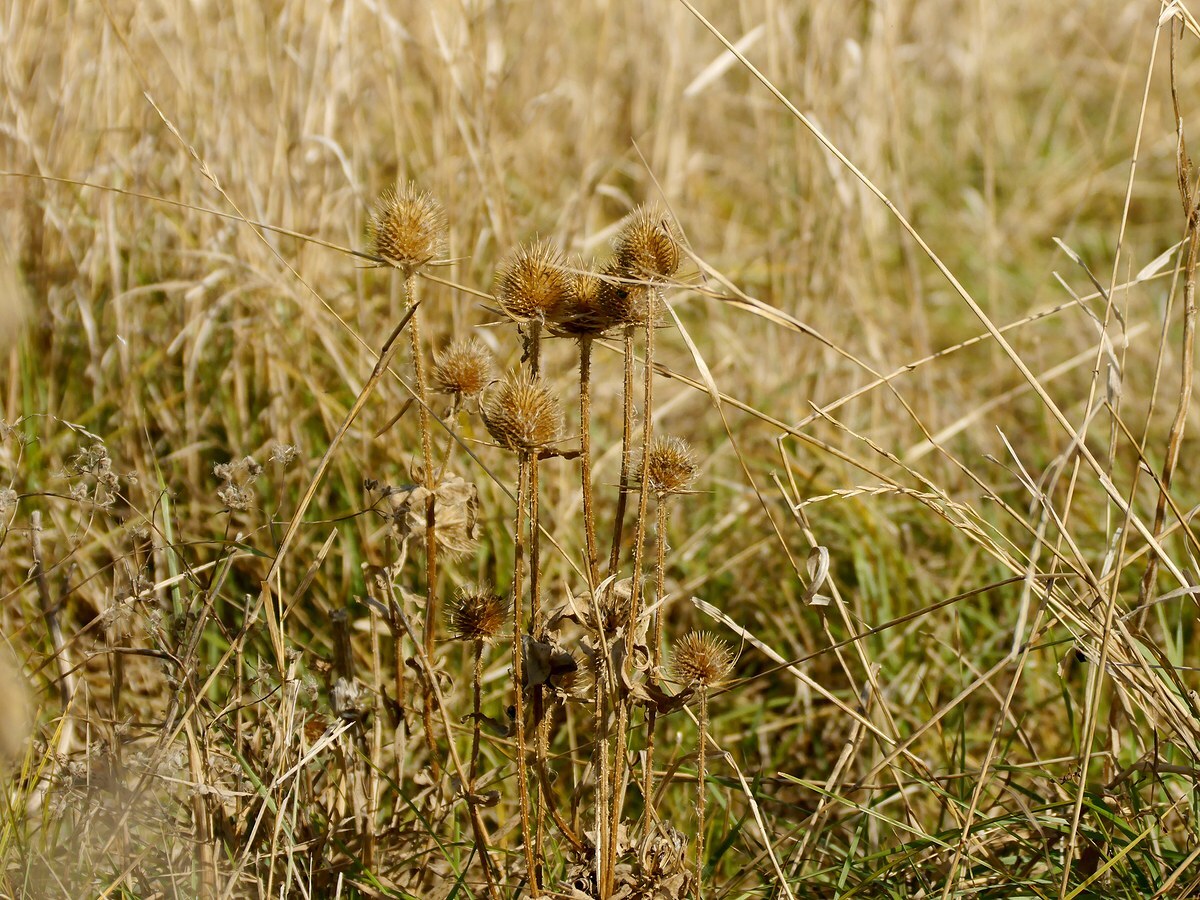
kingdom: Plantae
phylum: Tracheophyta
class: Magnoliopsida
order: Dipsacales
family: Caprifoliaceae
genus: Dipsacus
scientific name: Dipsacus laciniatus
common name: Cut-leaved teasel
